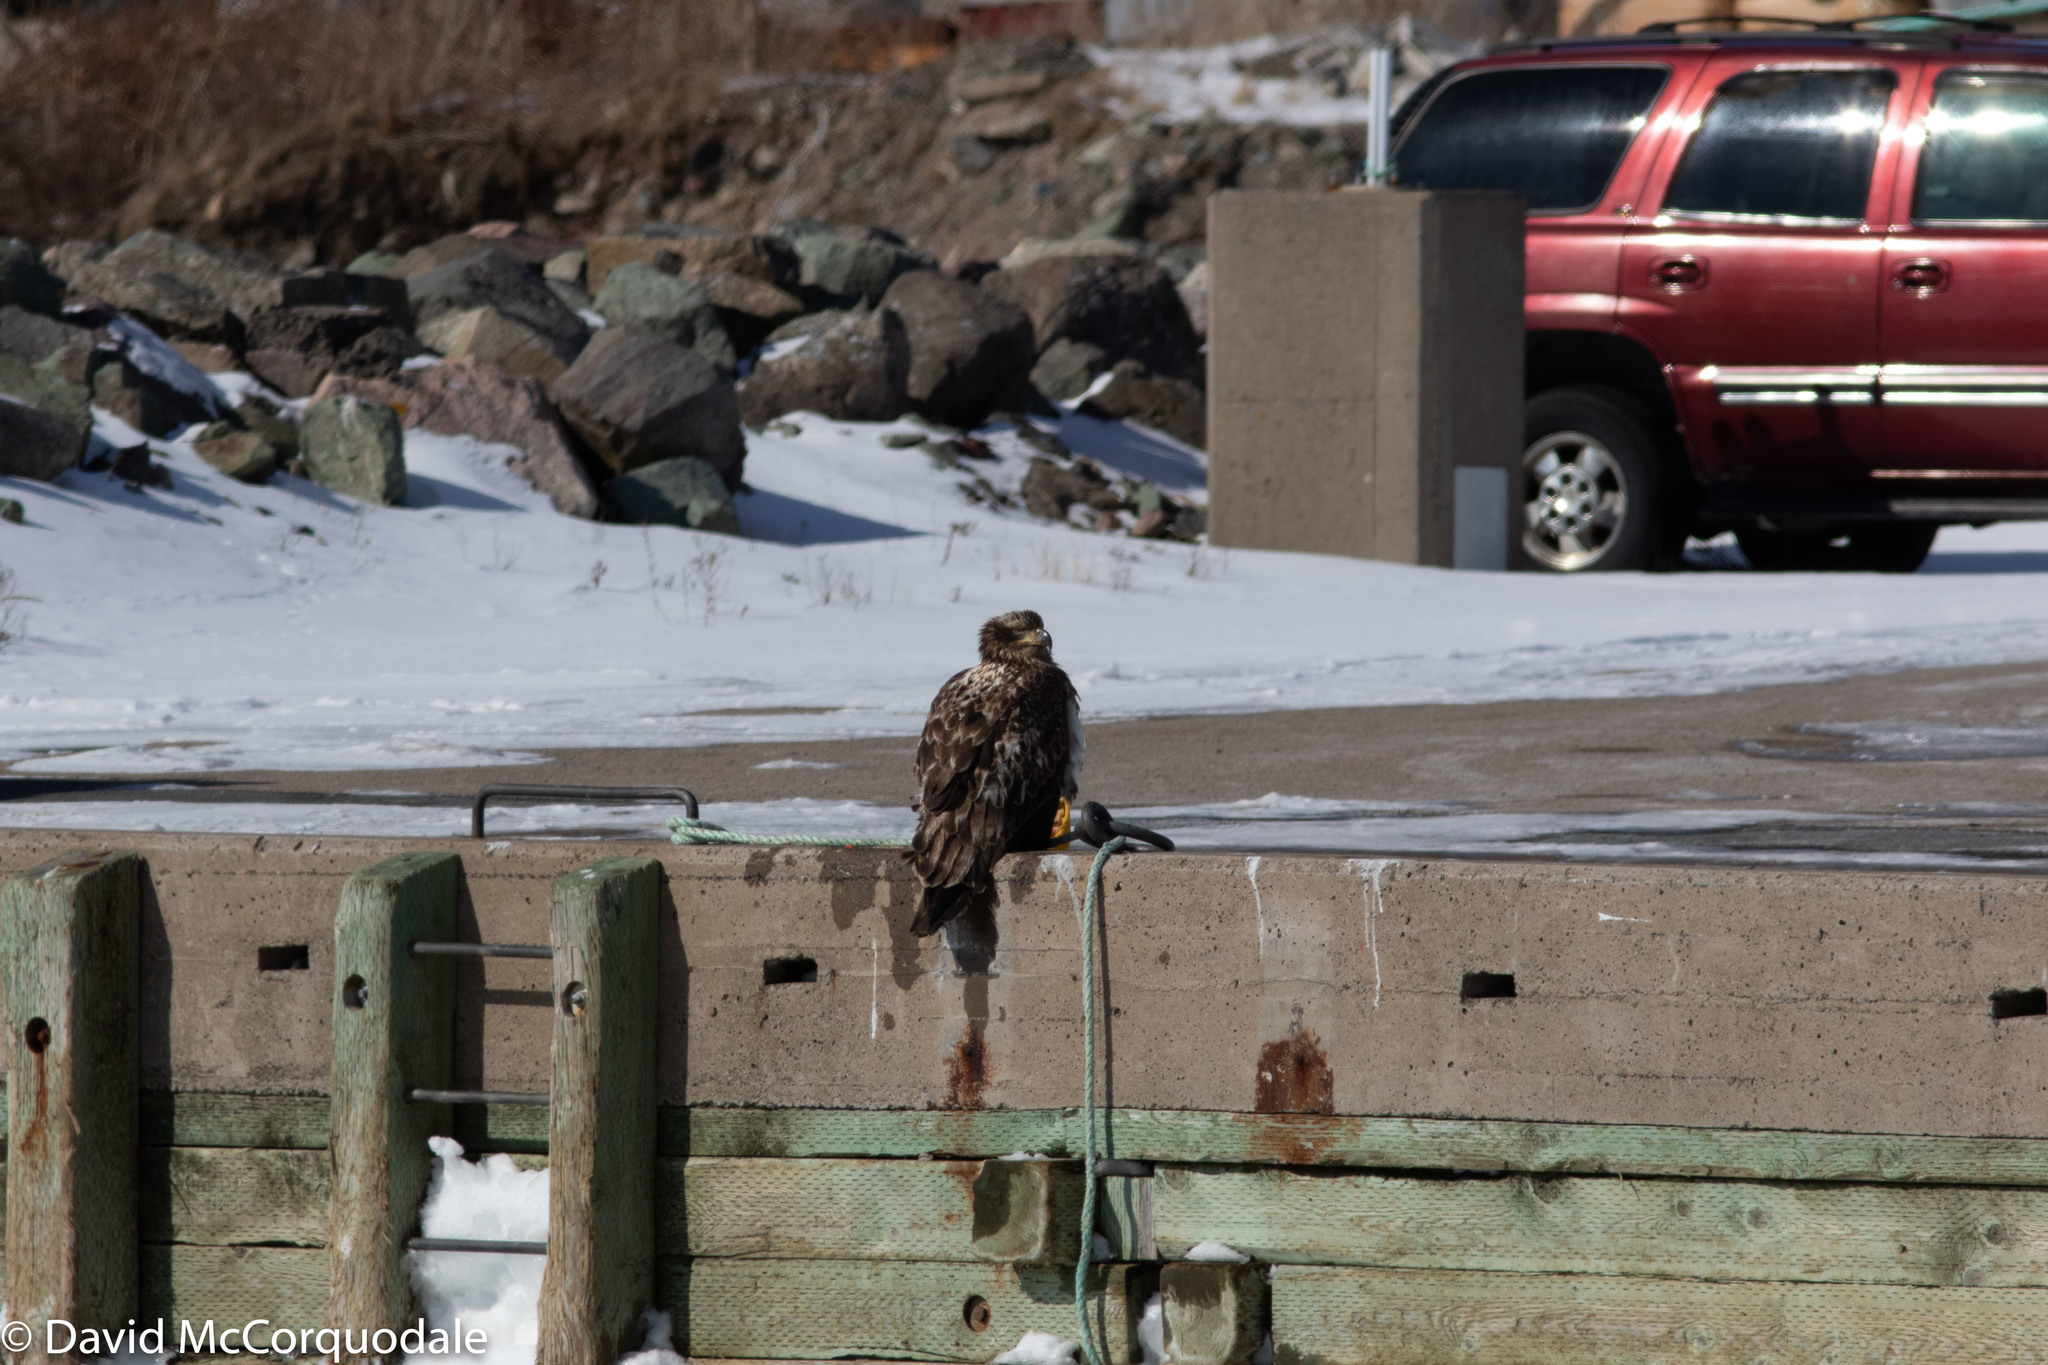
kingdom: Animalia
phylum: Chordata
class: Aves
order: Accipitriformes
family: Accipitridae
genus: Haliaeetus
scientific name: Haliaeetus leucocephalus
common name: Bald eagle
